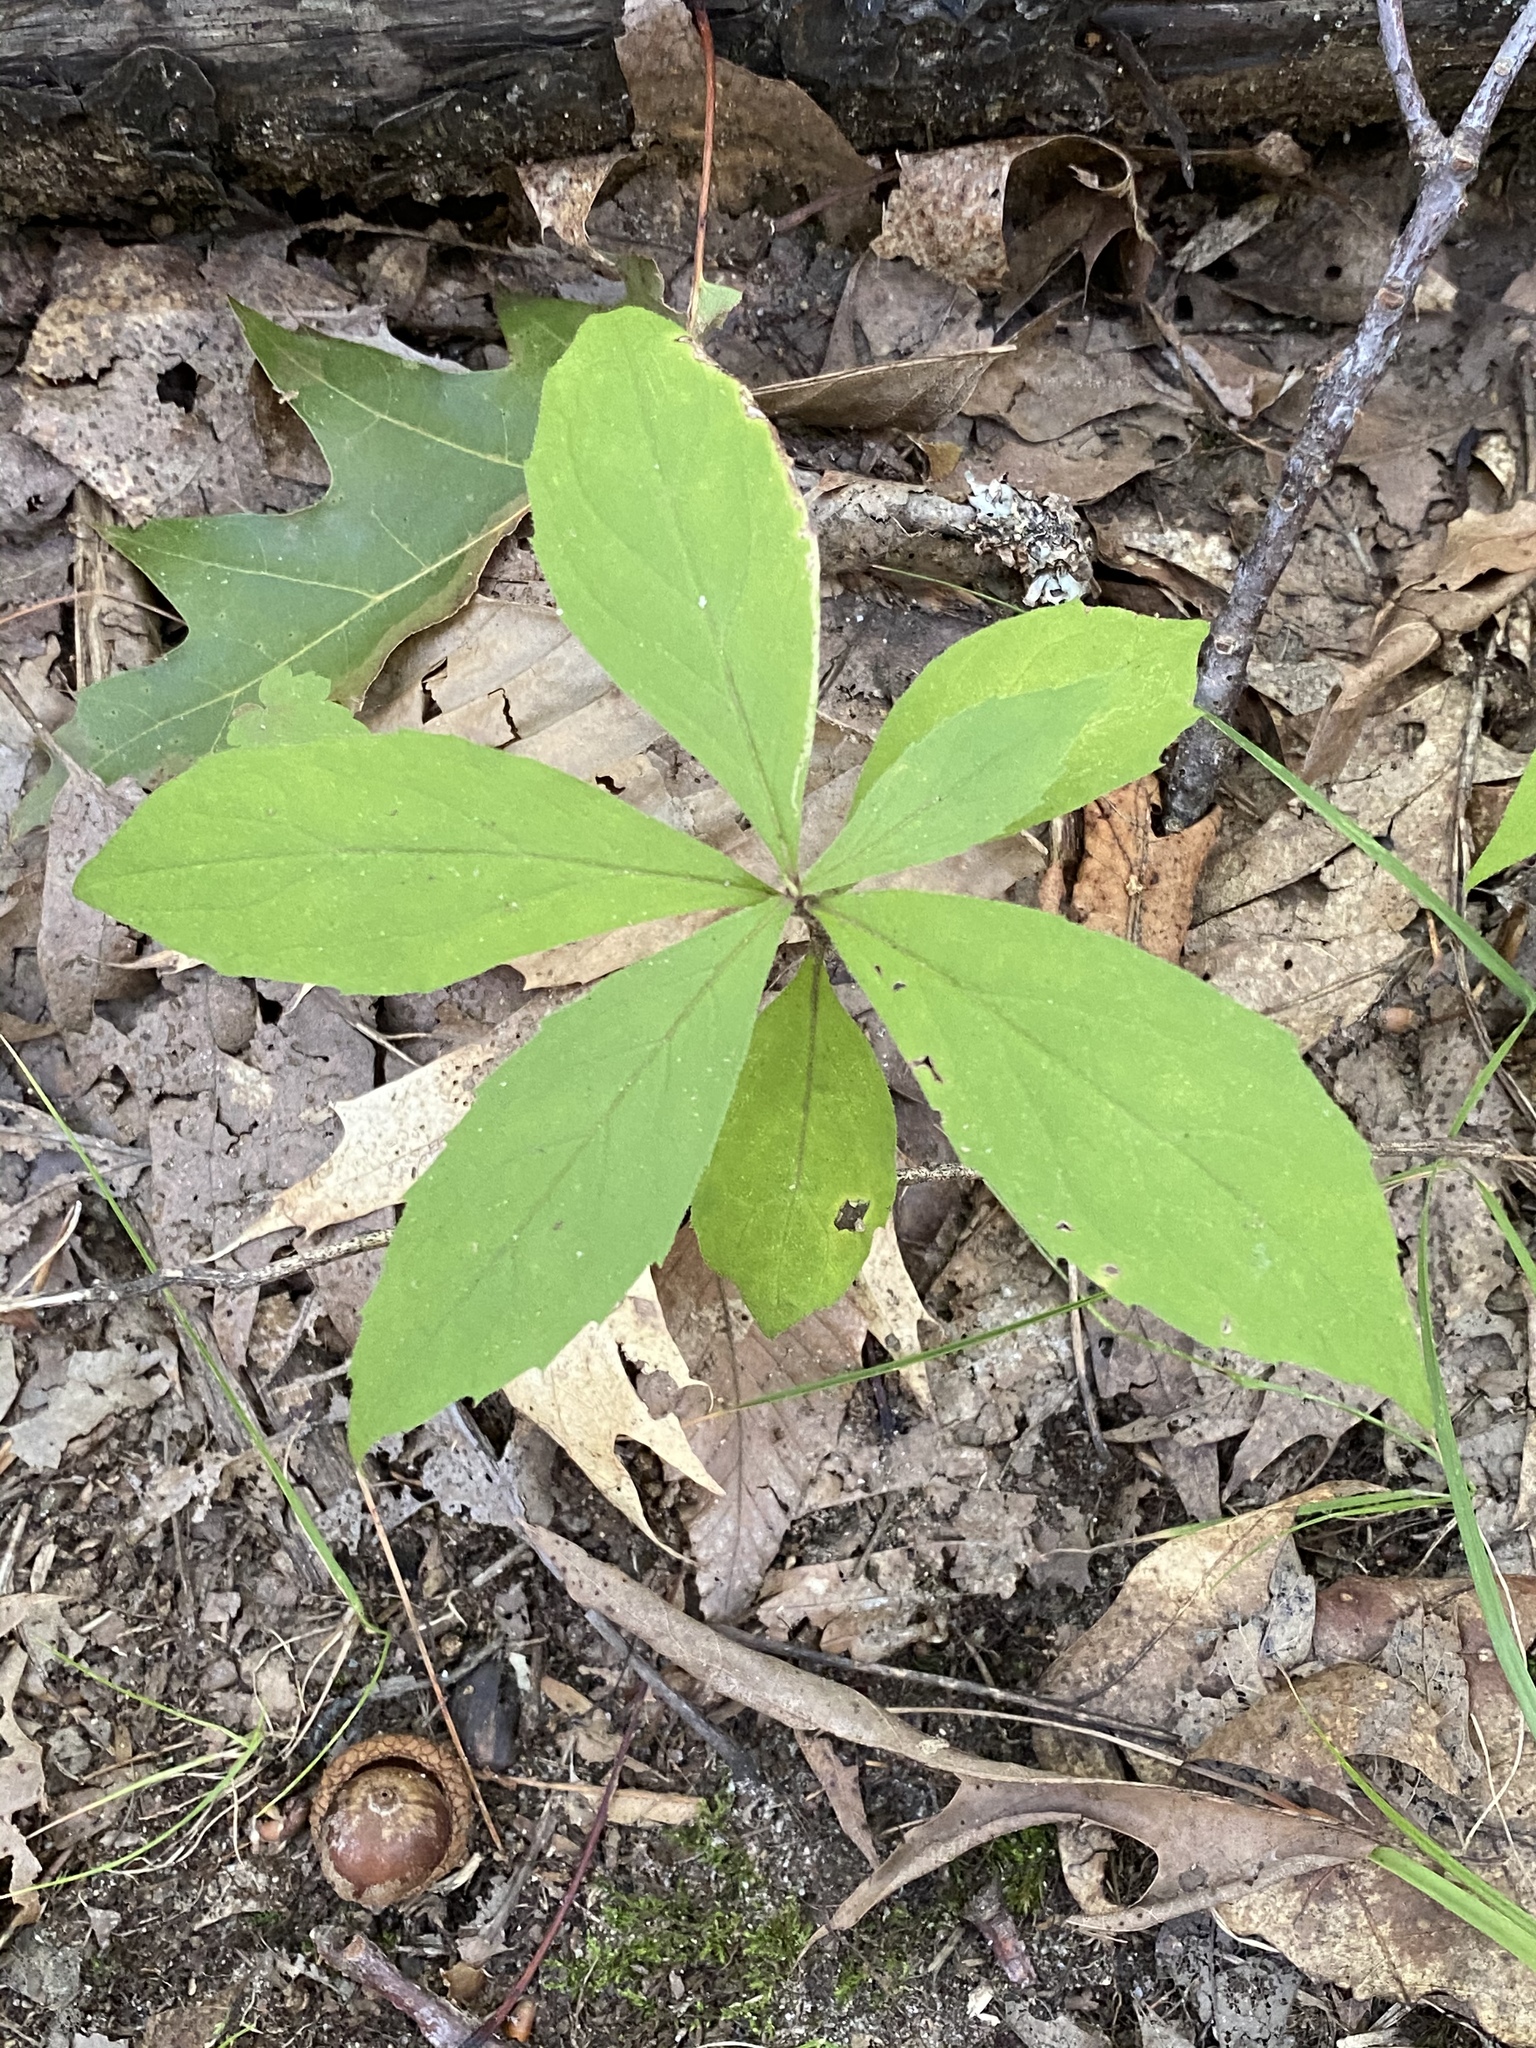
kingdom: Plantae
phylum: Tracheophyta
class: Magnoliopsida
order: Asterales
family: Asteraceae
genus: Oclemena
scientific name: Oclemena acuminata
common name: Mountain aster
